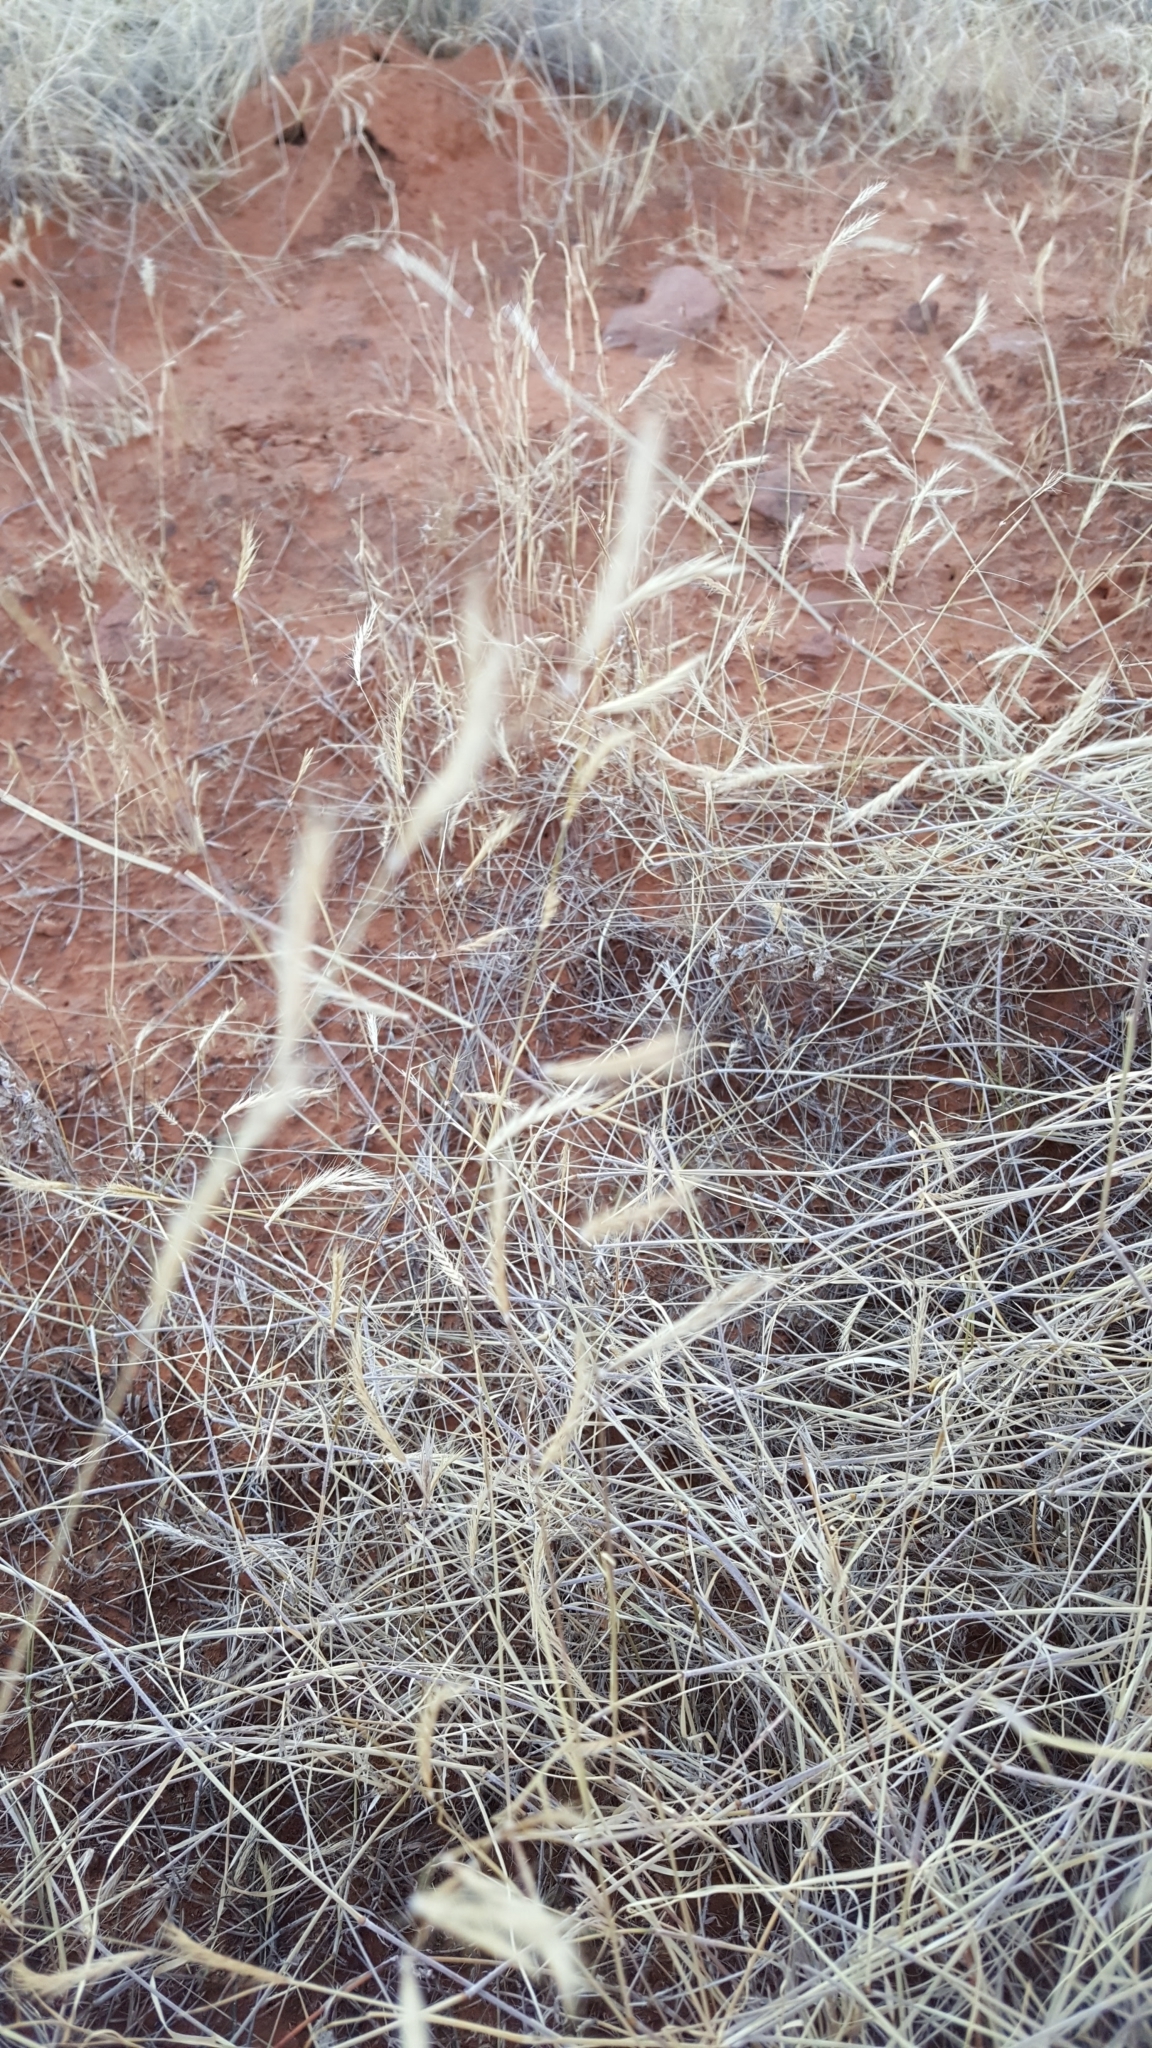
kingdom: Plantae
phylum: Tracheophyta
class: Liliopsida
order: Poales
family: Poaceae
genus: Bouteloua
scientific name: Bouteloua eriopoda
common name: Woolly foot grama
